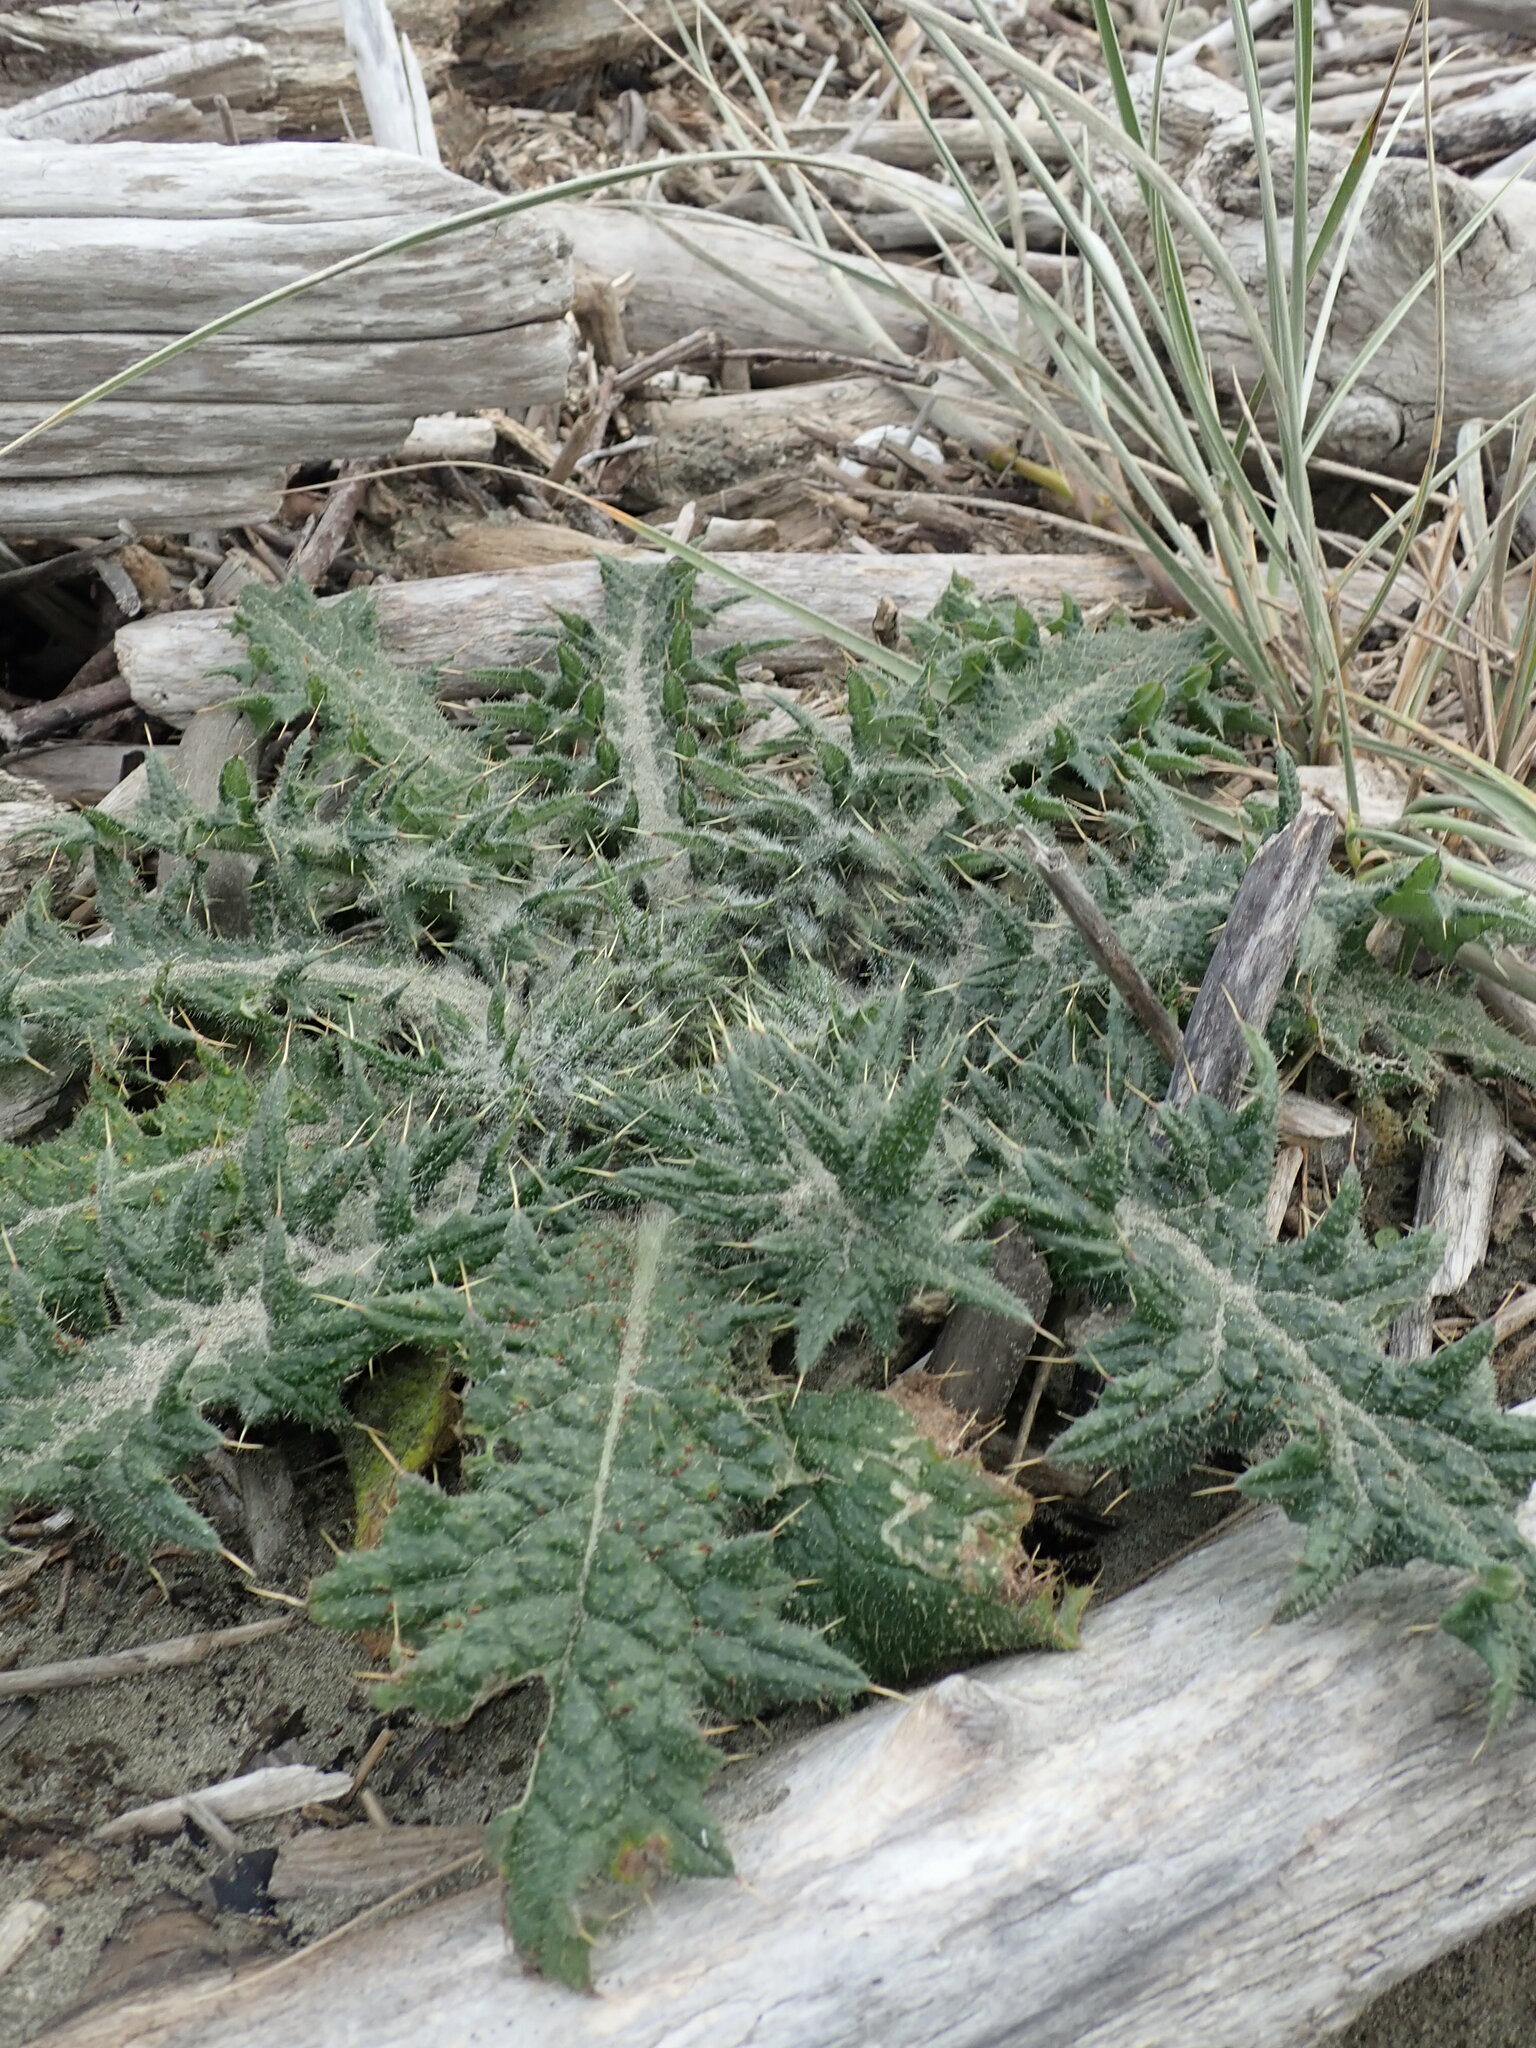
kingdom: Plantae
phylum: Tracheophyta
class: Magnoliopsida
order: Asterales
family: Asteraceae
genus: Cirsium
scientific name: Cirsium vulgare
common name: Bull thistle
